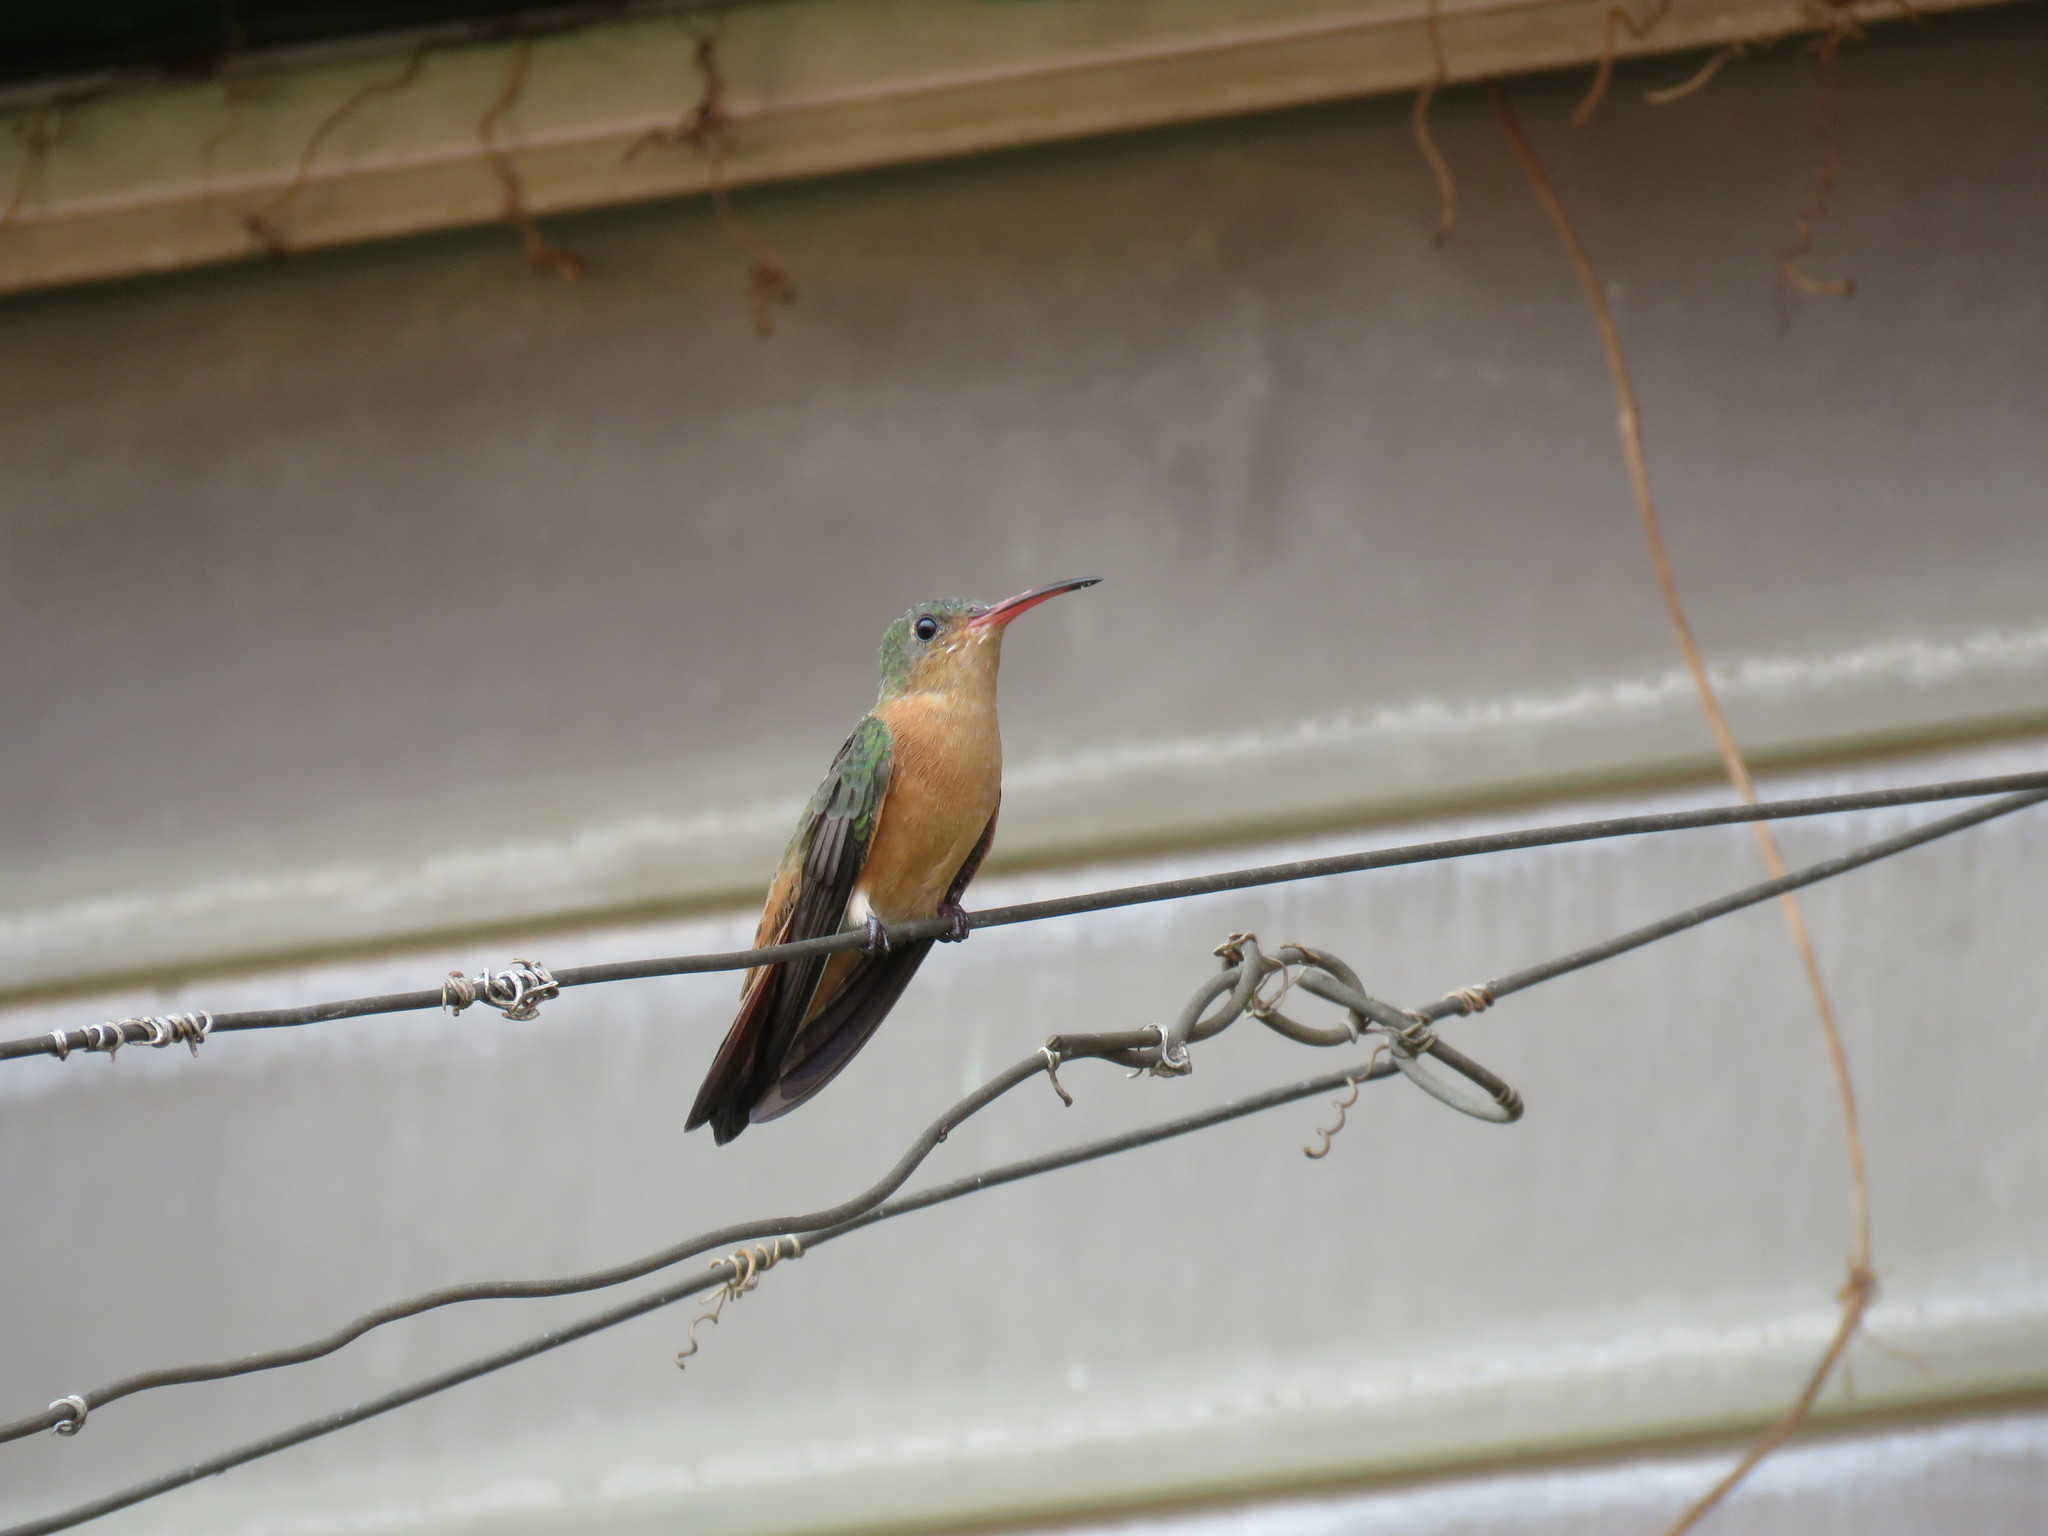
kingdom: Animalia
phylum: Chordata
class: Aves
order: Apodiformes
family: Trochilidae
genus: Amazilia
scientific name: Amazilia rutila
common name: Cinnamon hummingbird
